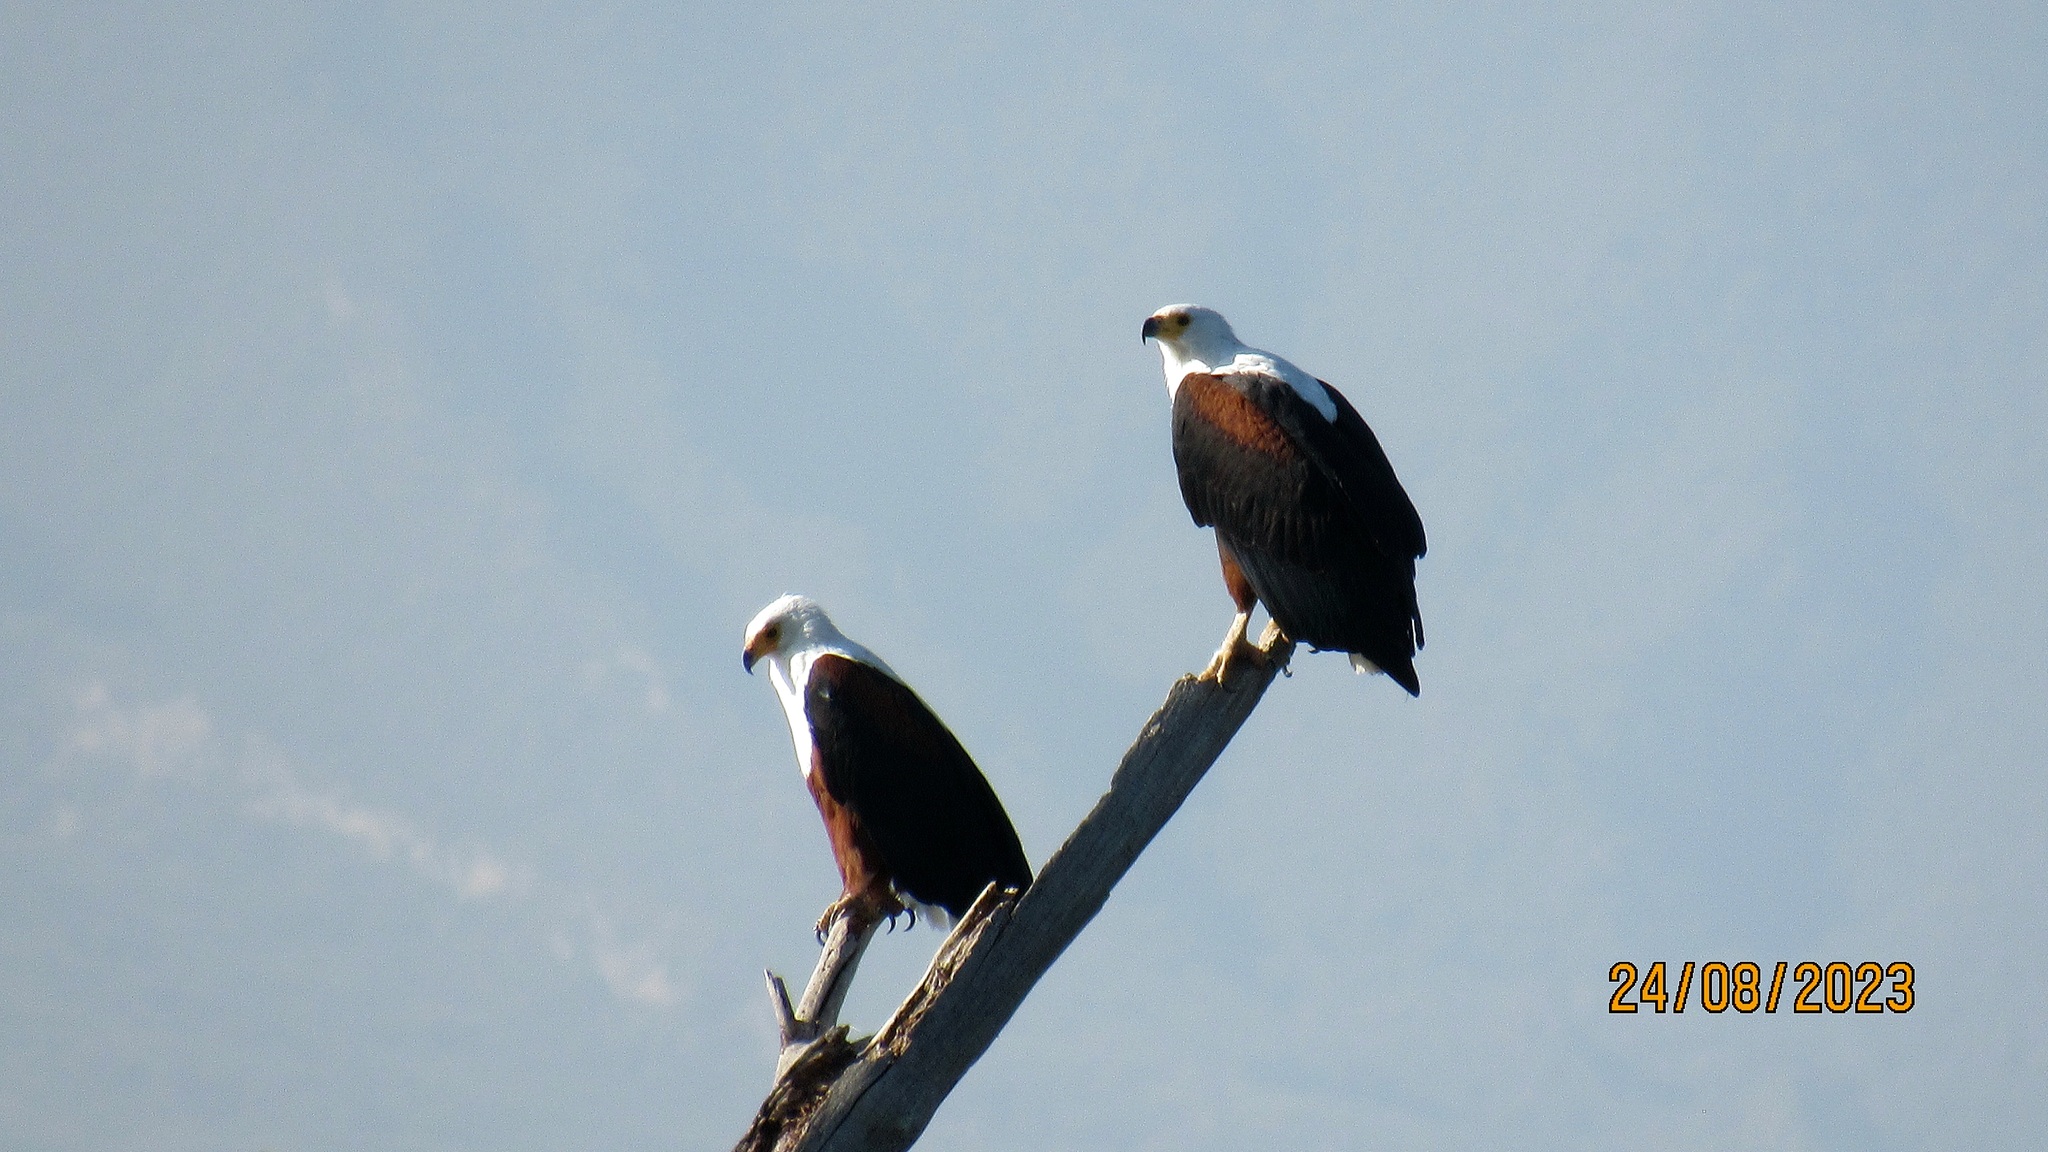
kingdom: Animalia
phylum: Chordata
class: Aves
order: Accipitriformes
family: Accipitridae
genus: Haliaeetus
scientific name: Haliaeetus vocifer
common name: African fish eagle
